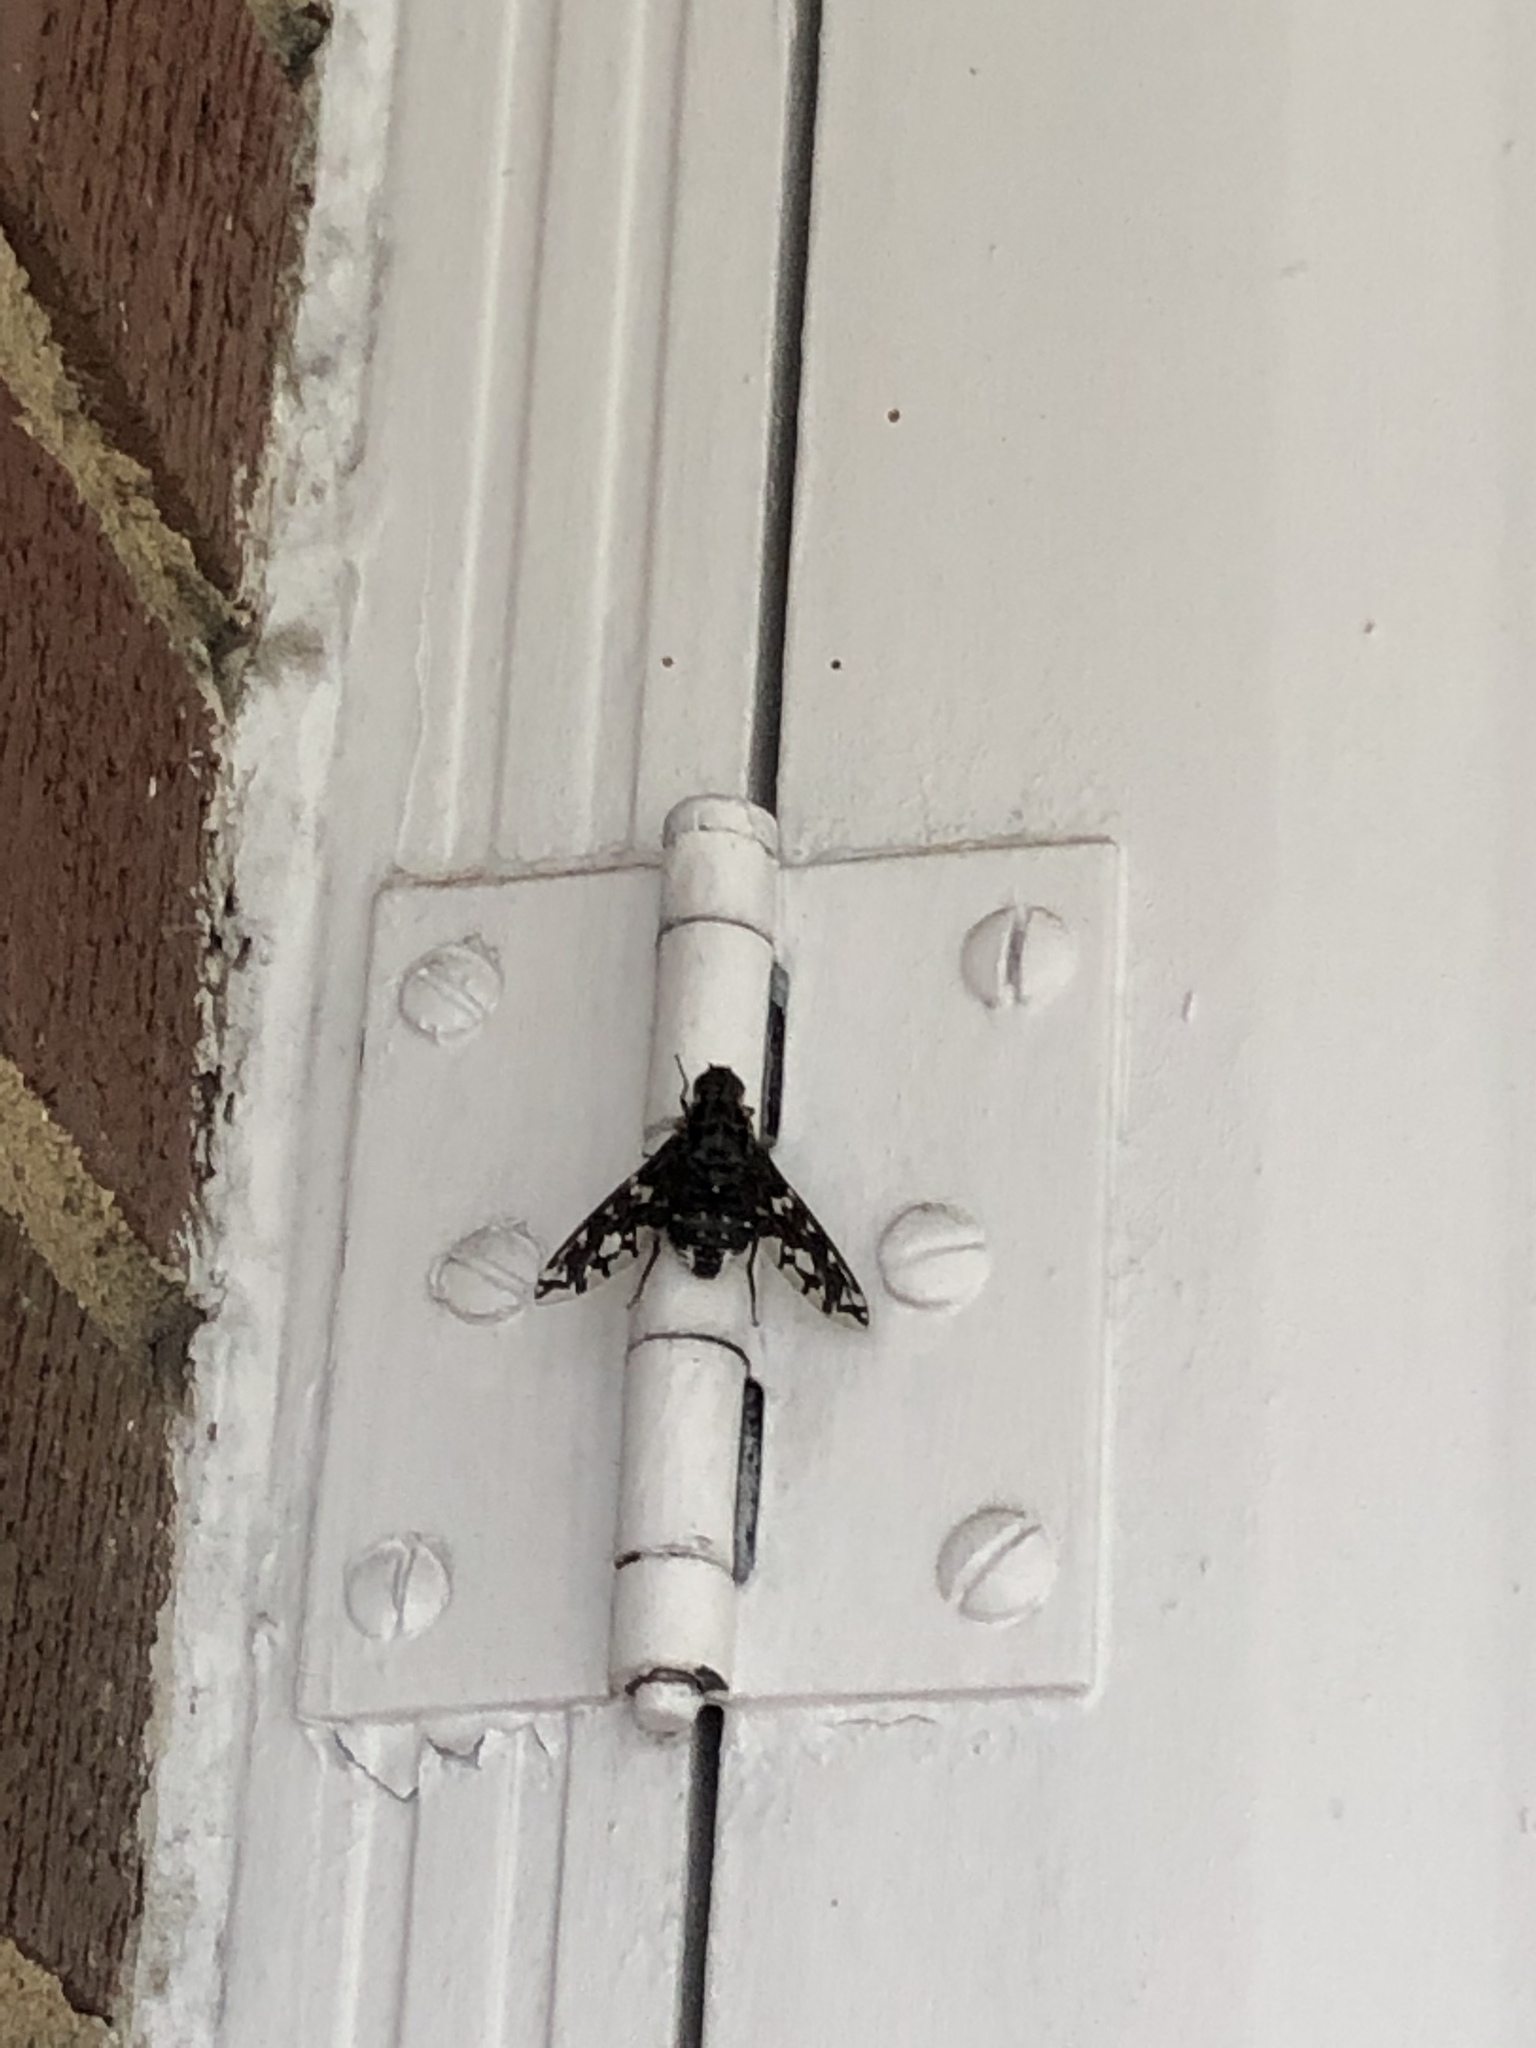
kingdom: Animalia
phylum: Arthropoda
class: Insecta
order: Diptera
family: Bombyliidae
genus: Xenox
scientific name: Xenox tigrinus
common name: Tiger bee fly
